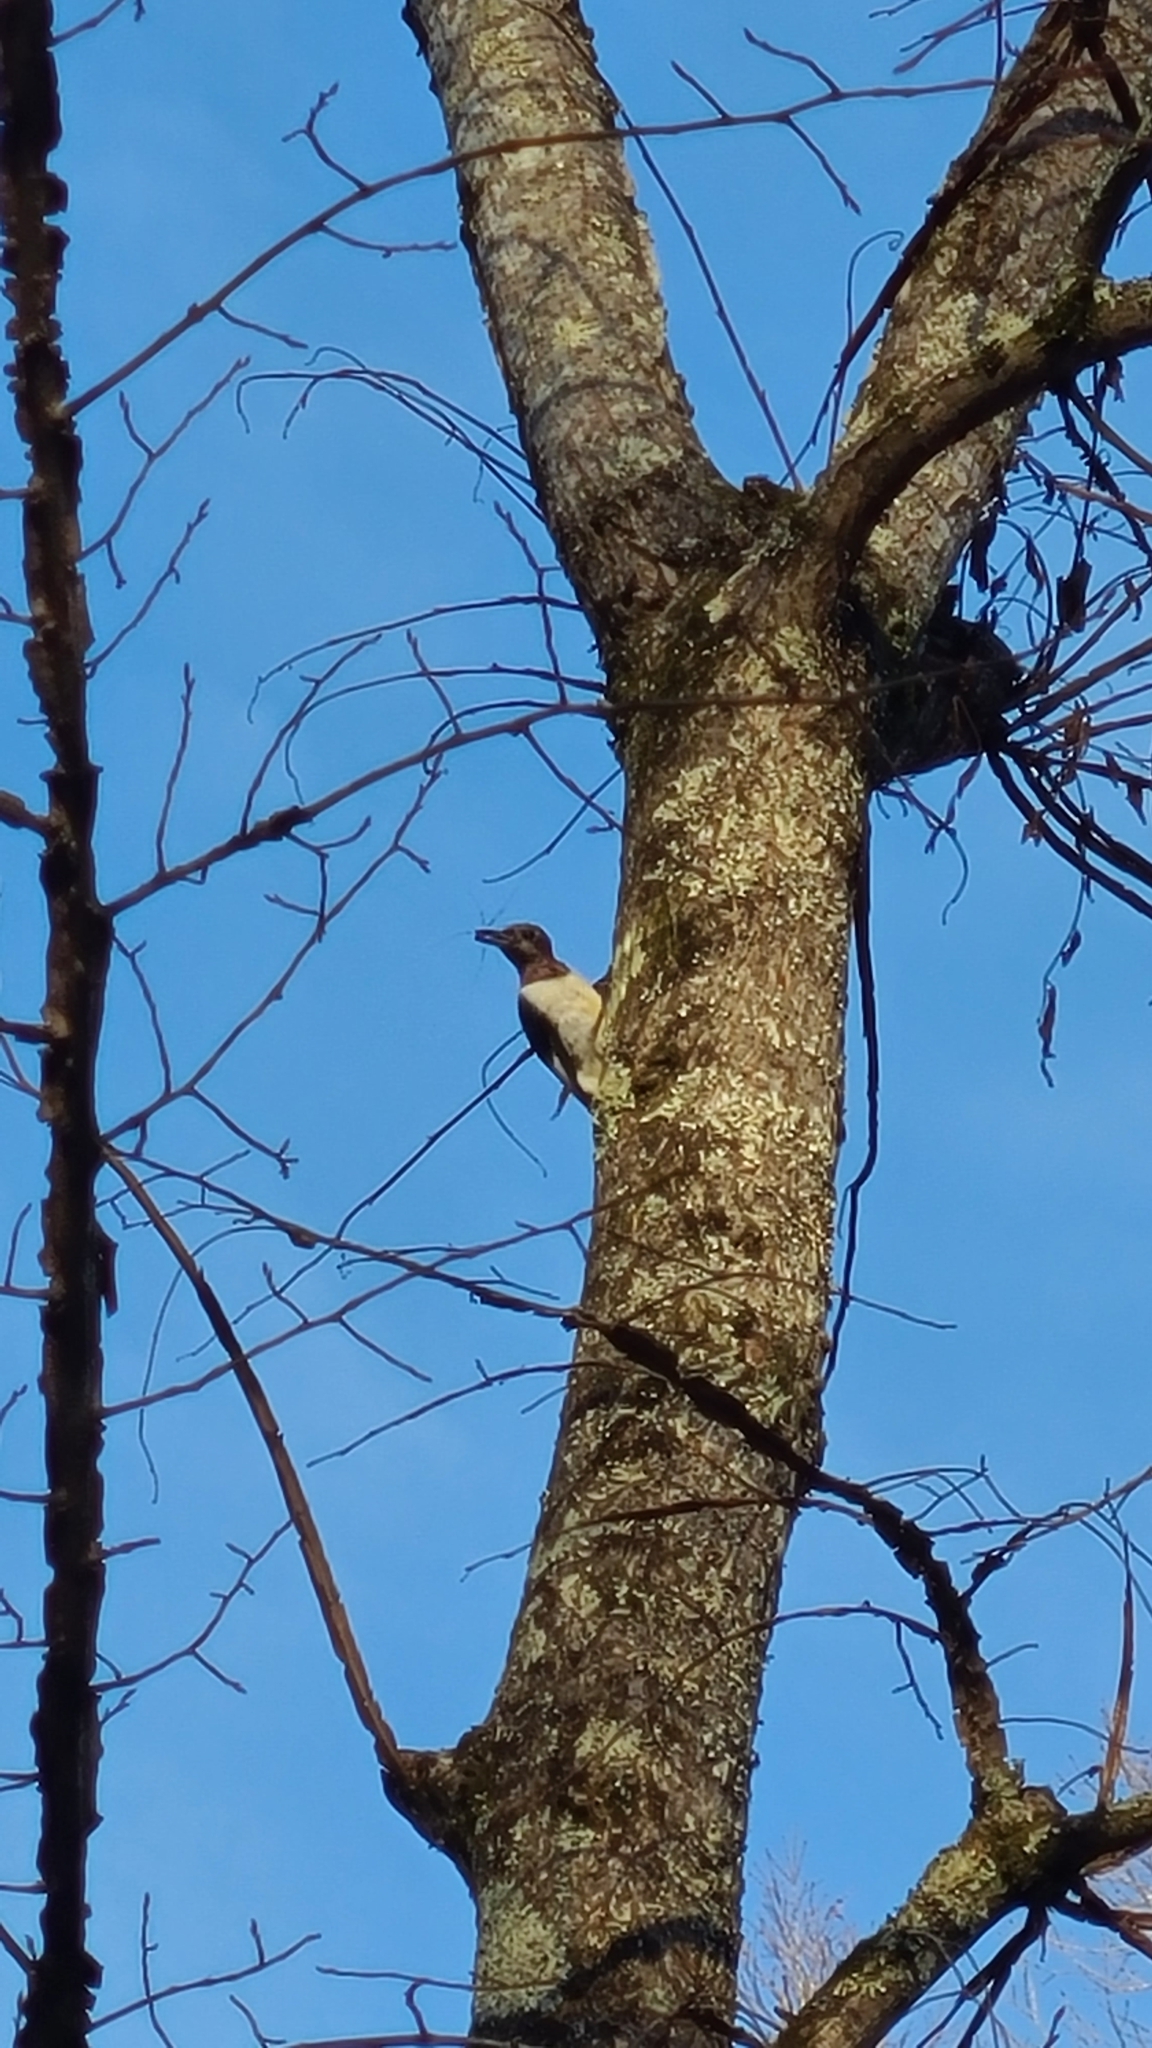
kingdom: Animalia
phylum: Chordata
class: Aves
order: Piciformes
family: Picidae
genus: Melanerpes
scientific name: Melanerpes erythrocephalus
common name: Red-headed woodpecker
